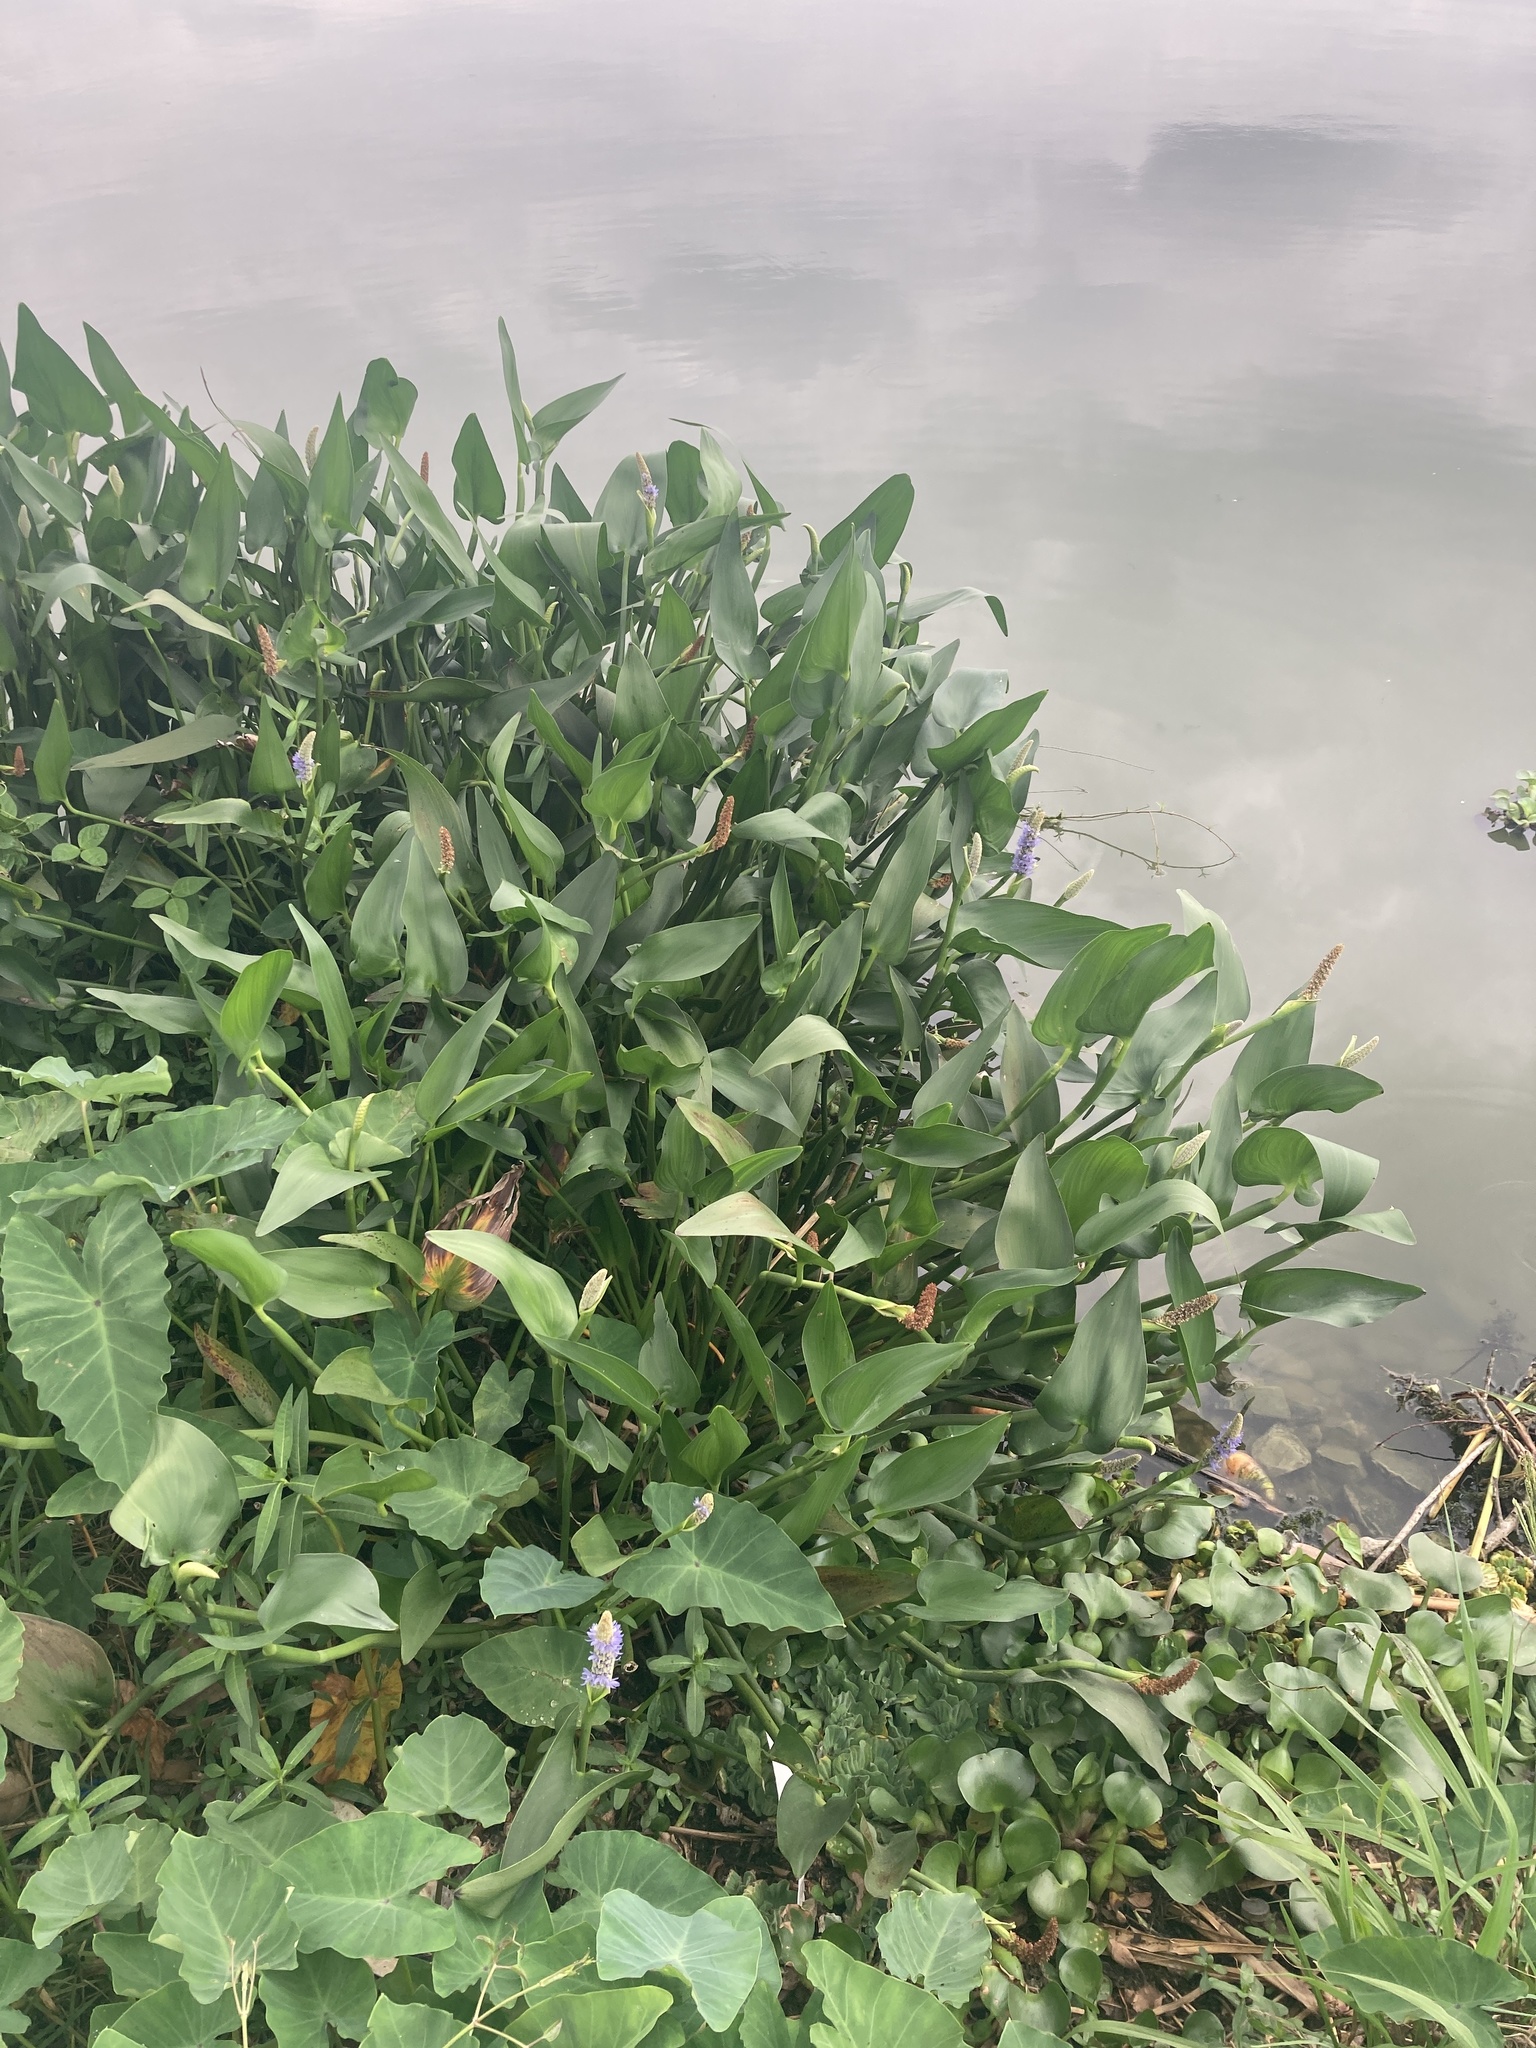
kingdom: Plantae
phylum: Tracheophyta
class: Liliopsida
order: Commelinales
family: Pontederiaceae
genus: Pontederia
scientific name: Pontederia cordata
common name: Pickerelweed
